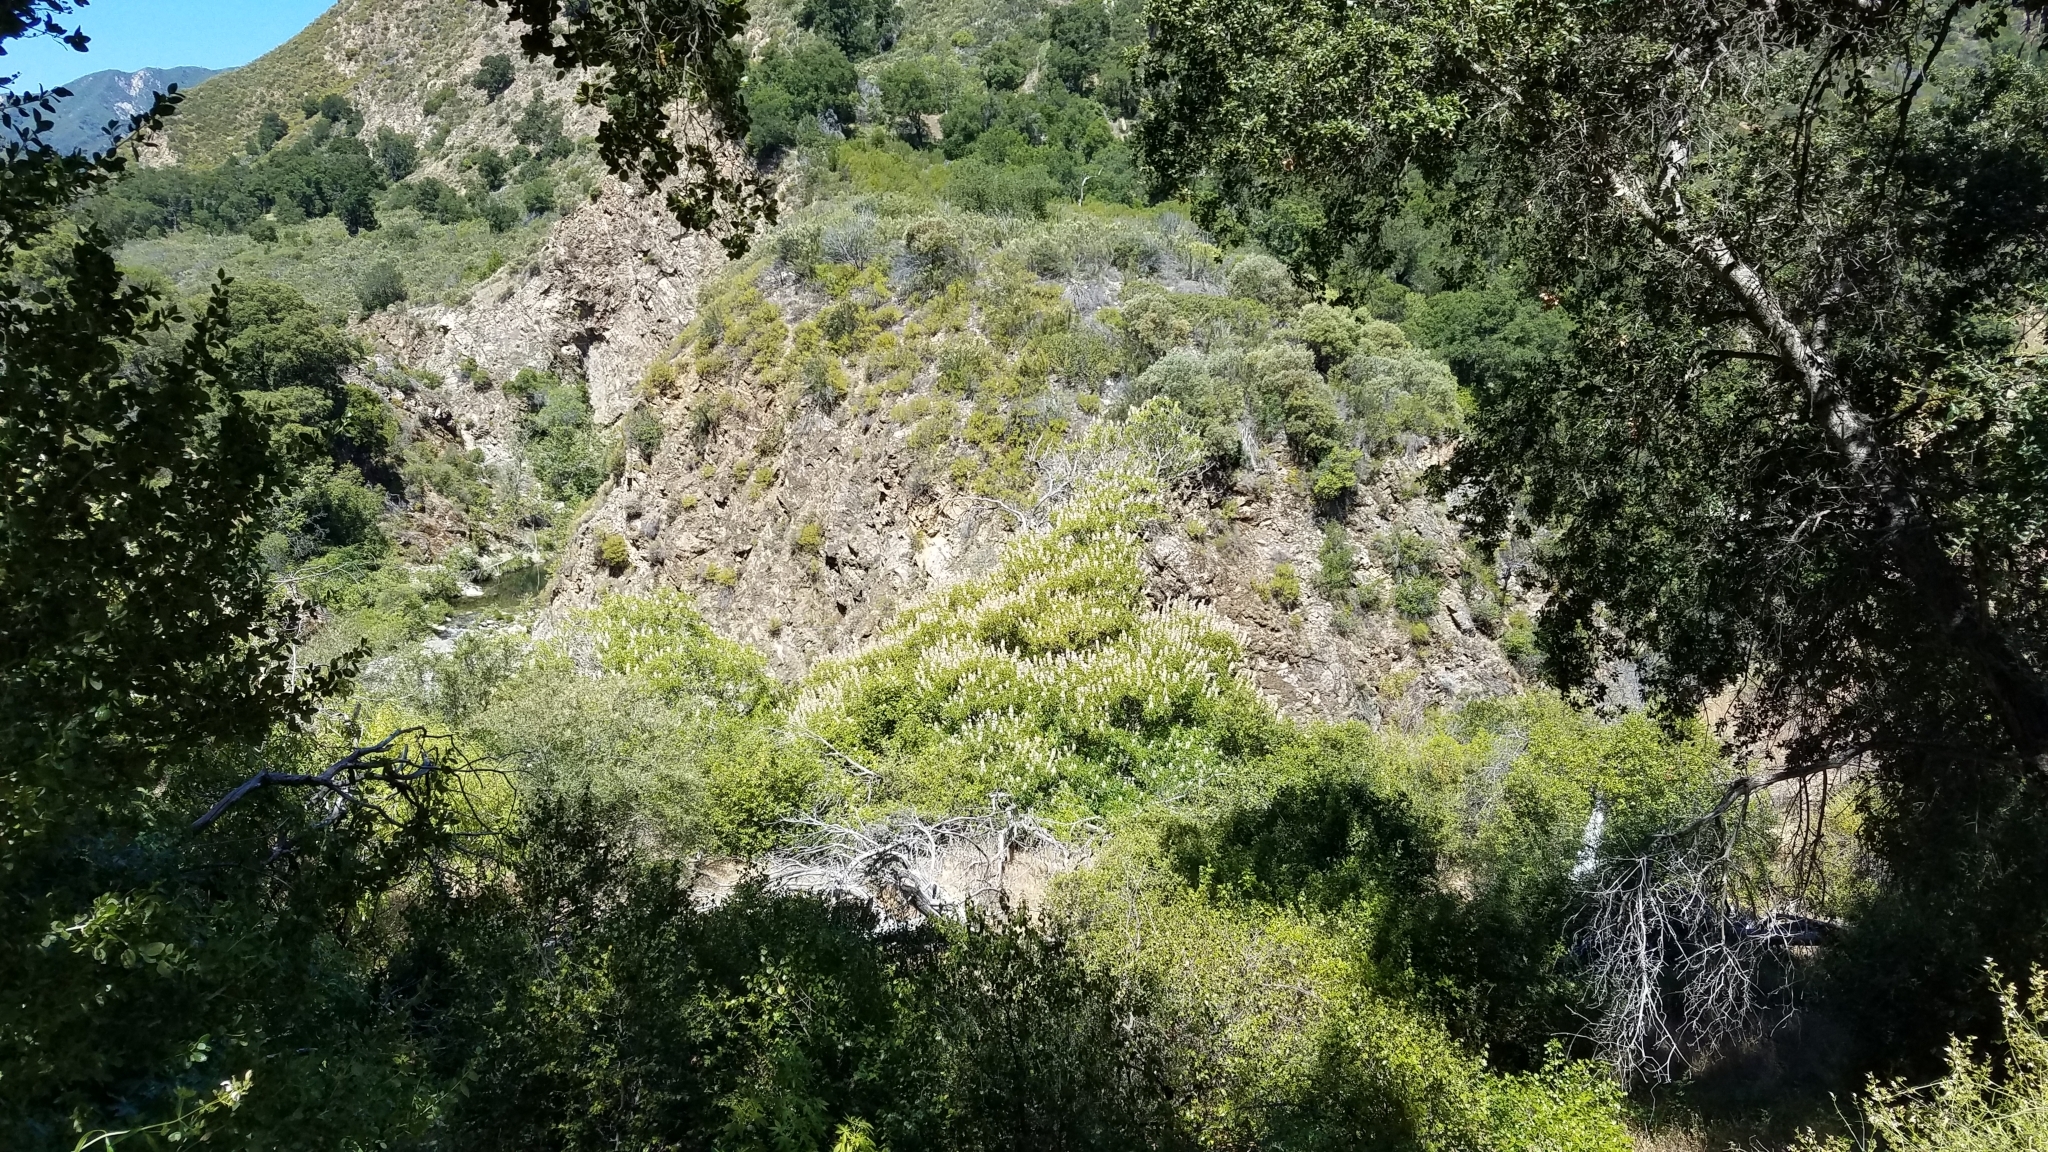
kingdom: Plantae
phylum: Tracheophyta
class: Magnoliopsida
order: Sapindales
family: Sapindaceae
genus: Aesculus
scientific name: Aesculus californica
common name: California buckeye
